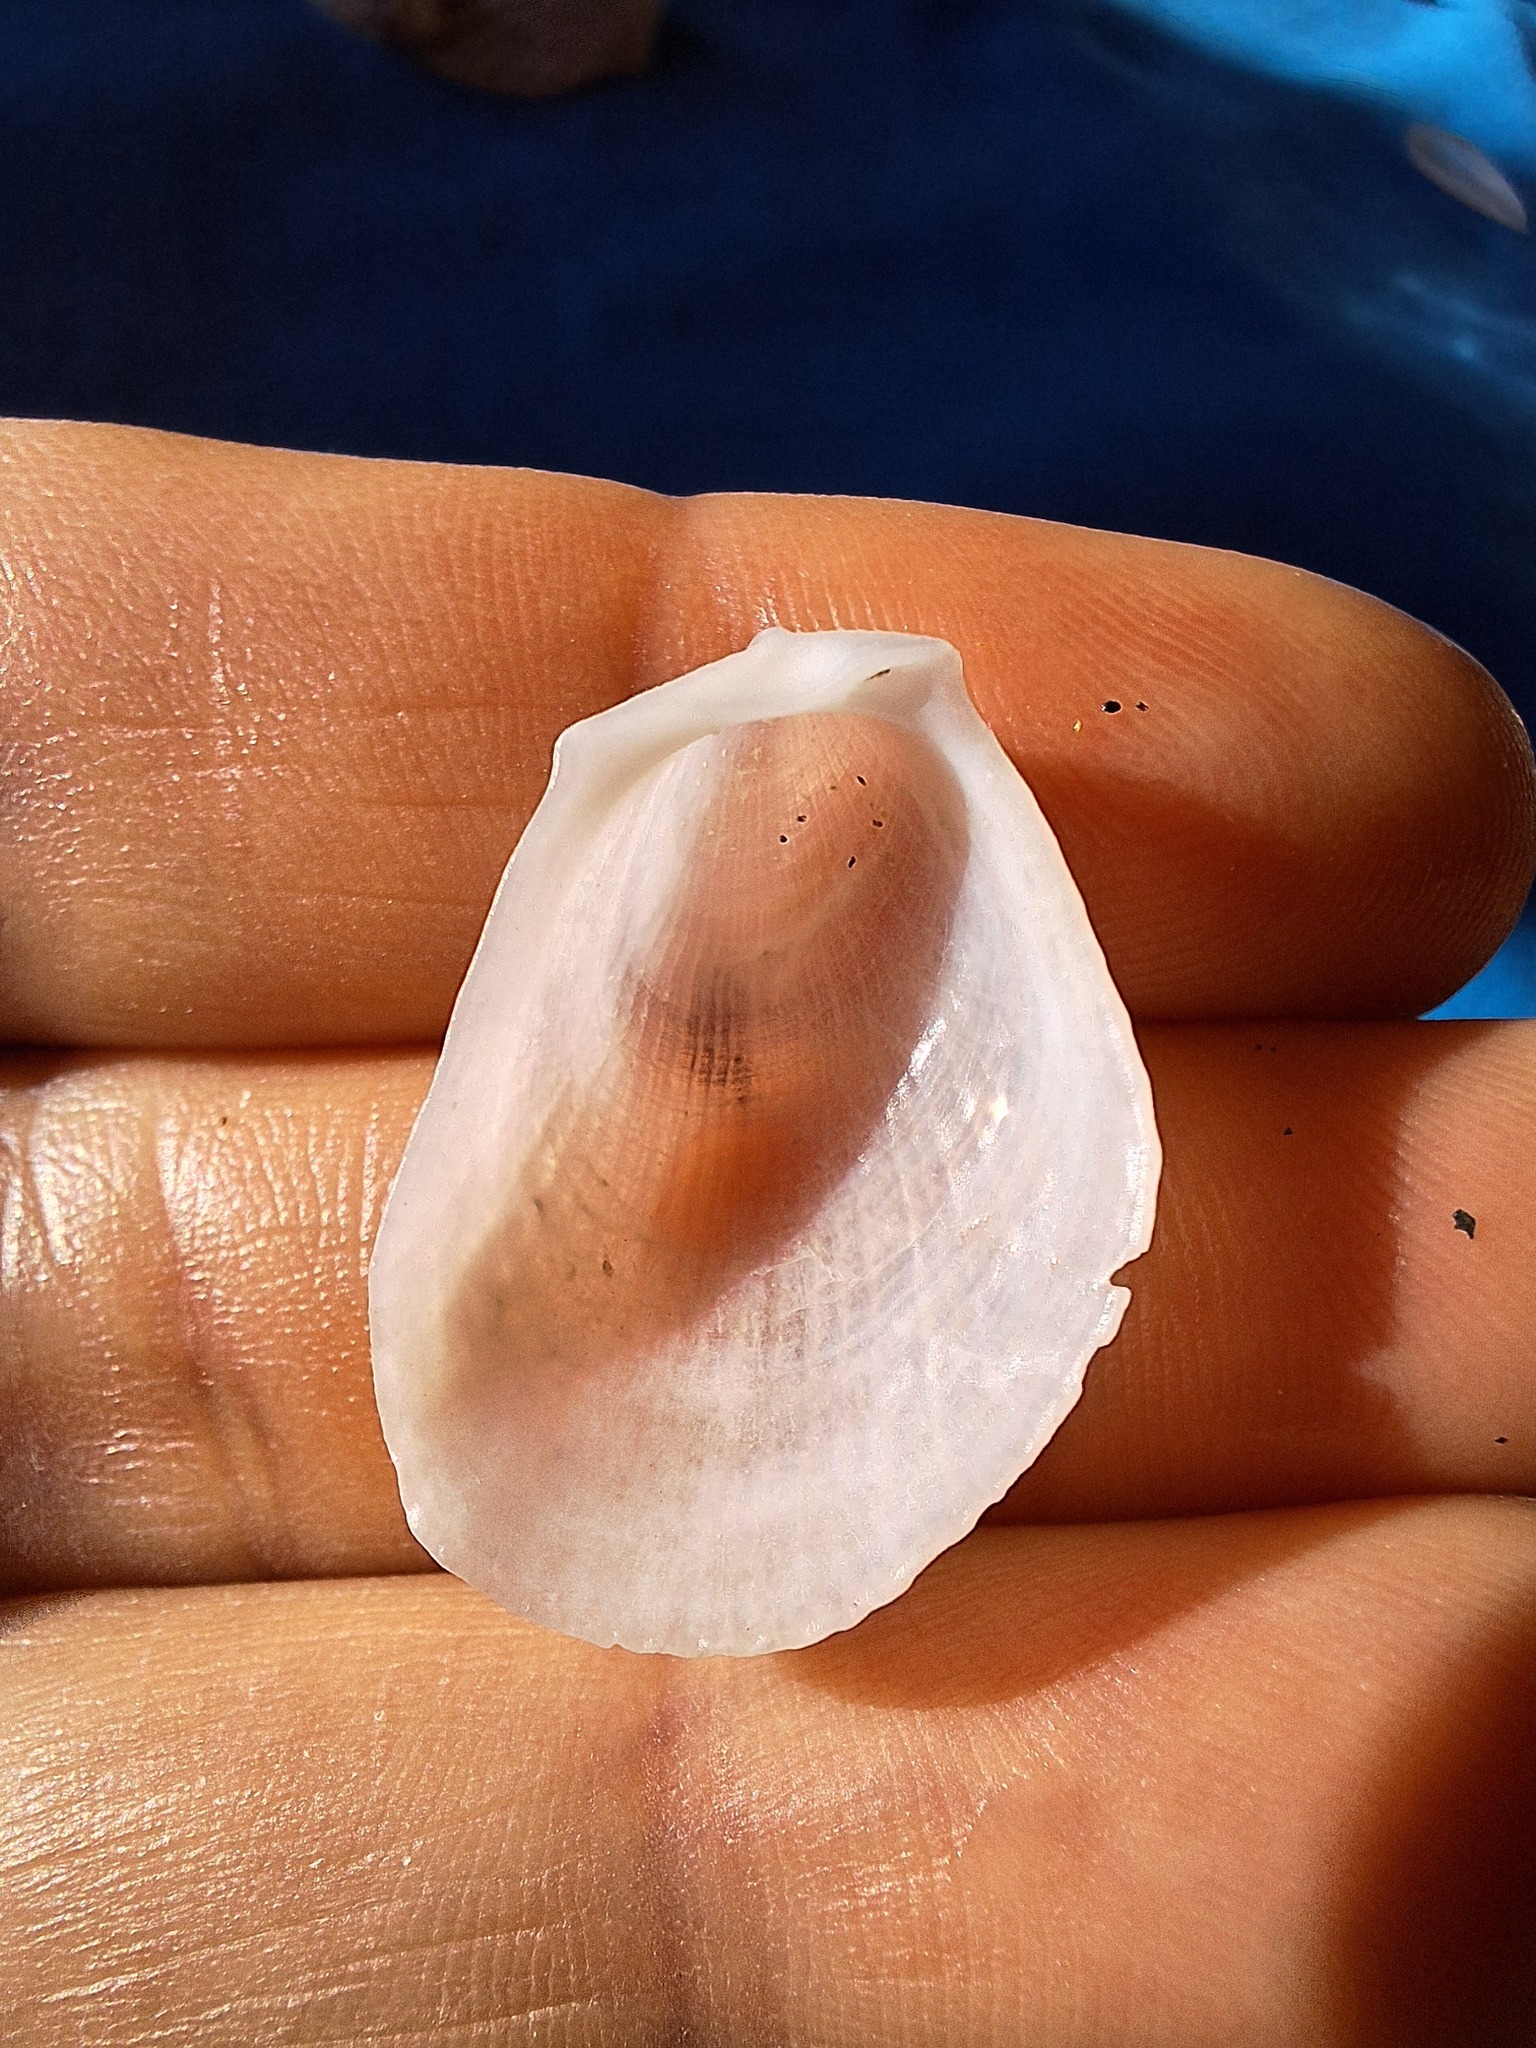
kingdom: Animalia
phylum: Mollusca
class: Bivalvia
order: Limida
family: Limidae
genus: Limaria
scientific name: Limaria tuberculata
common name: File shell
